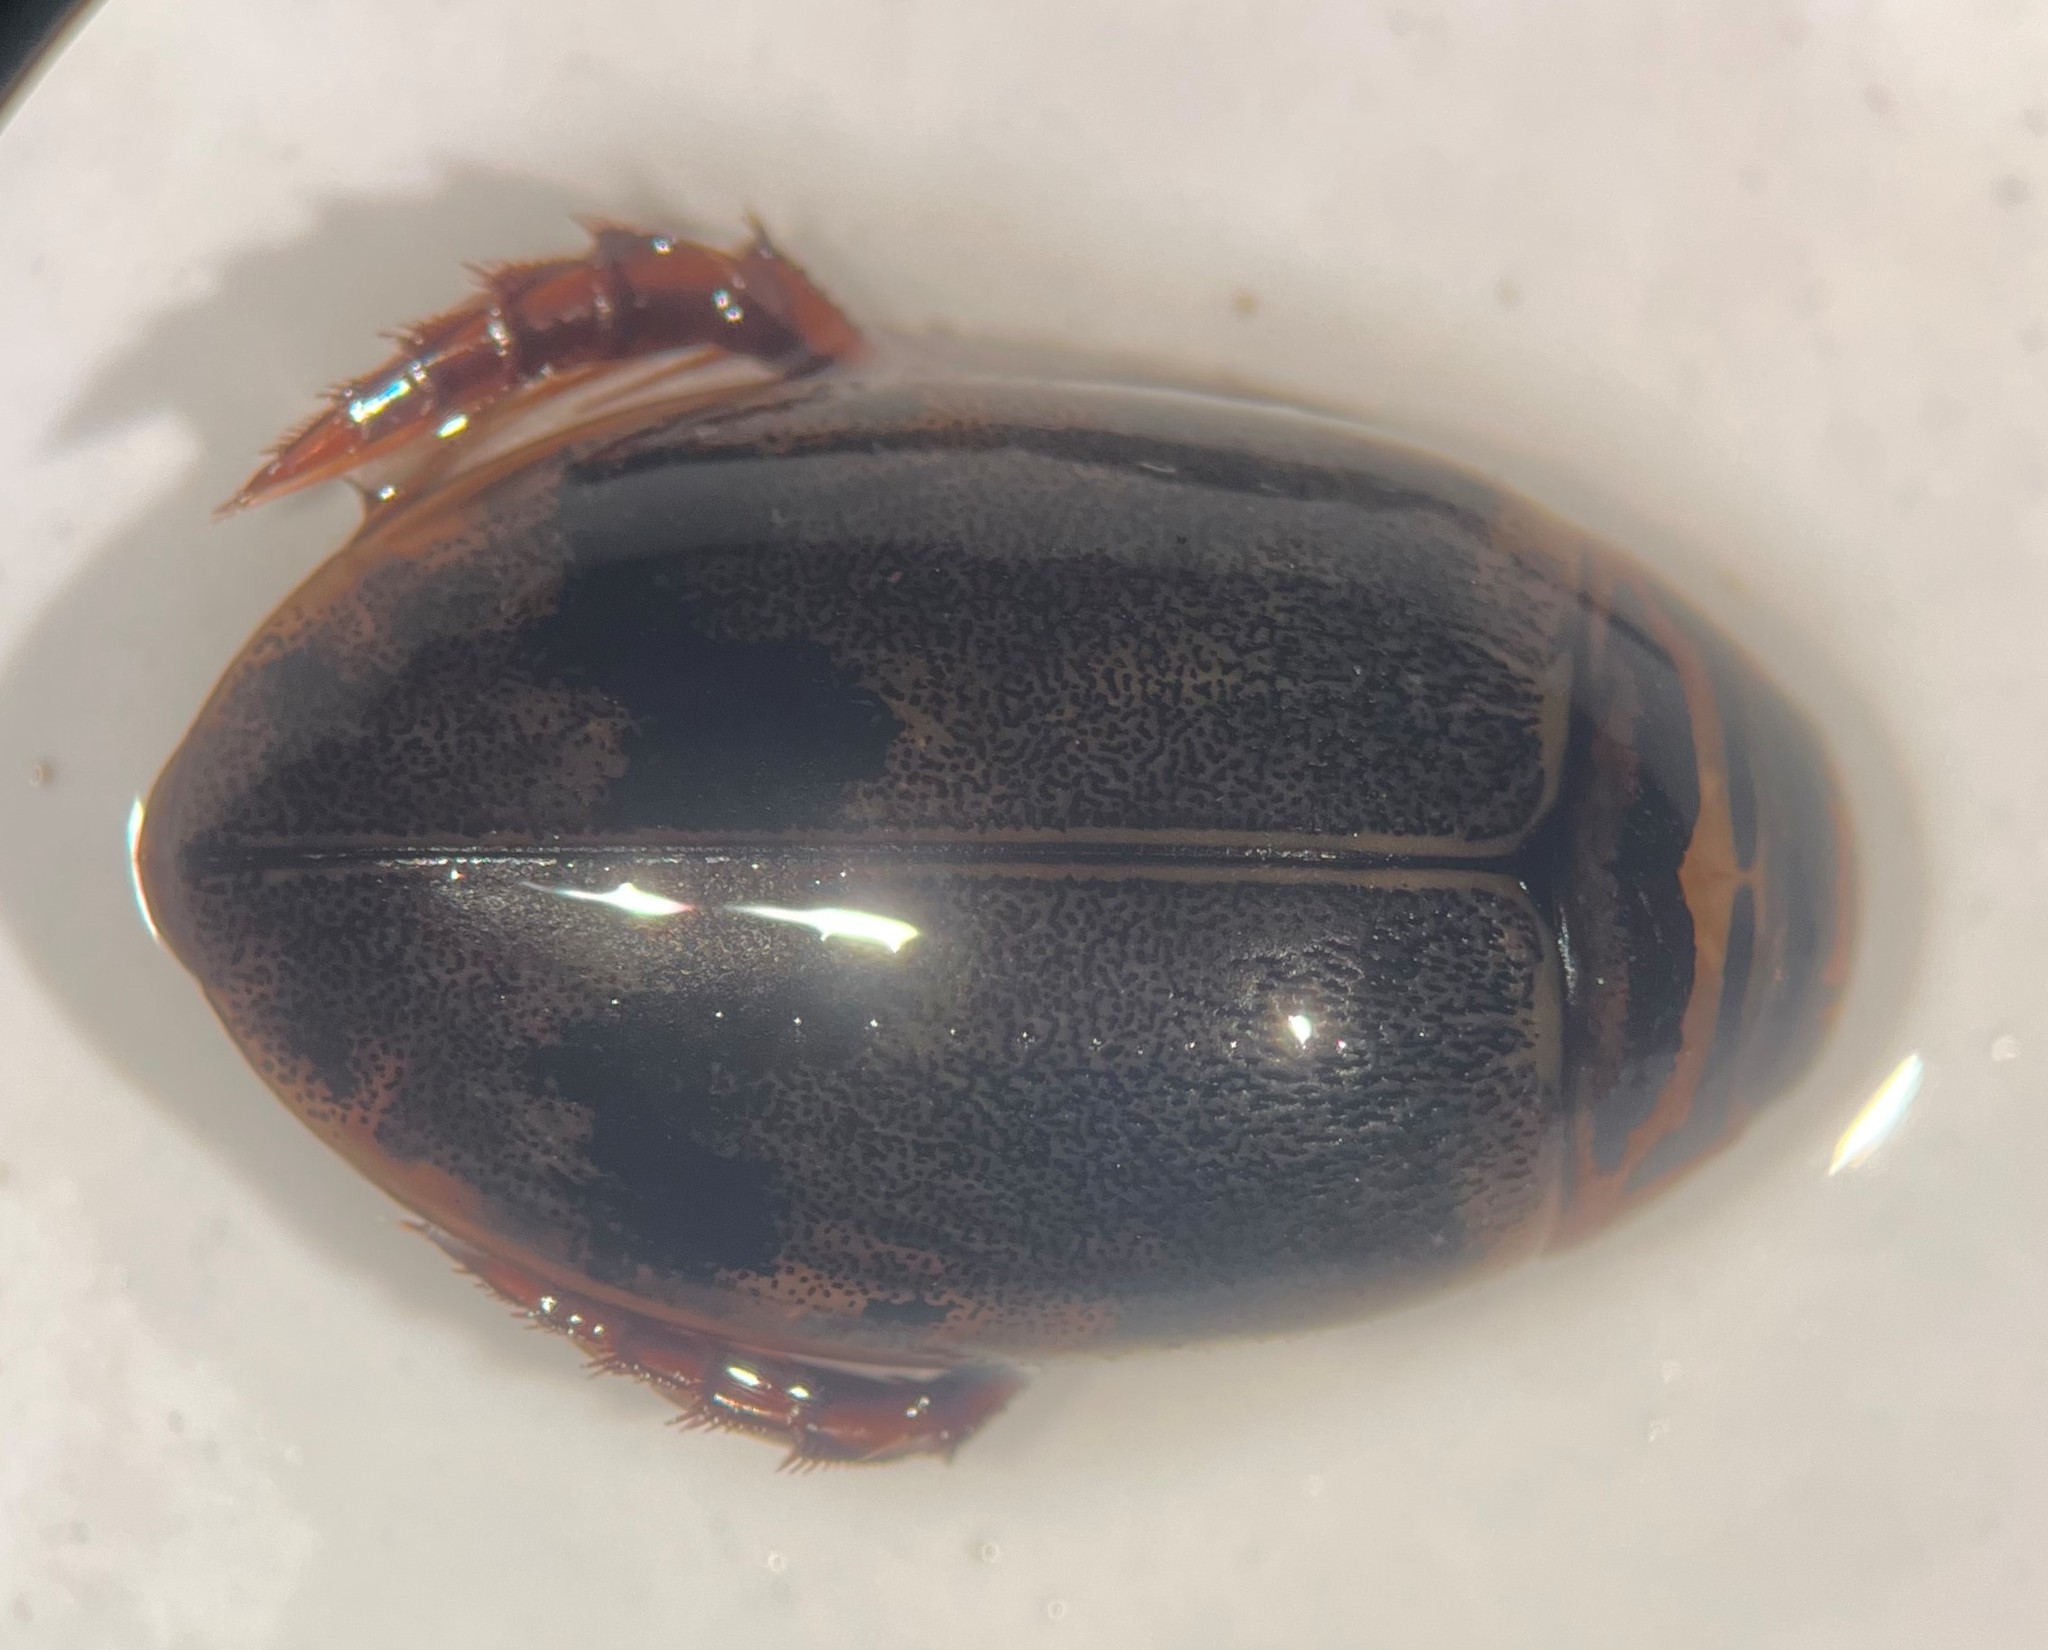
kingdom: Animalia
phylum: Arthropoda
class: Insecta
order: Coleoptera
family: Dytiscidae
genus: Thermonectus
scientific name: Thermonectus nigrofasciatus
